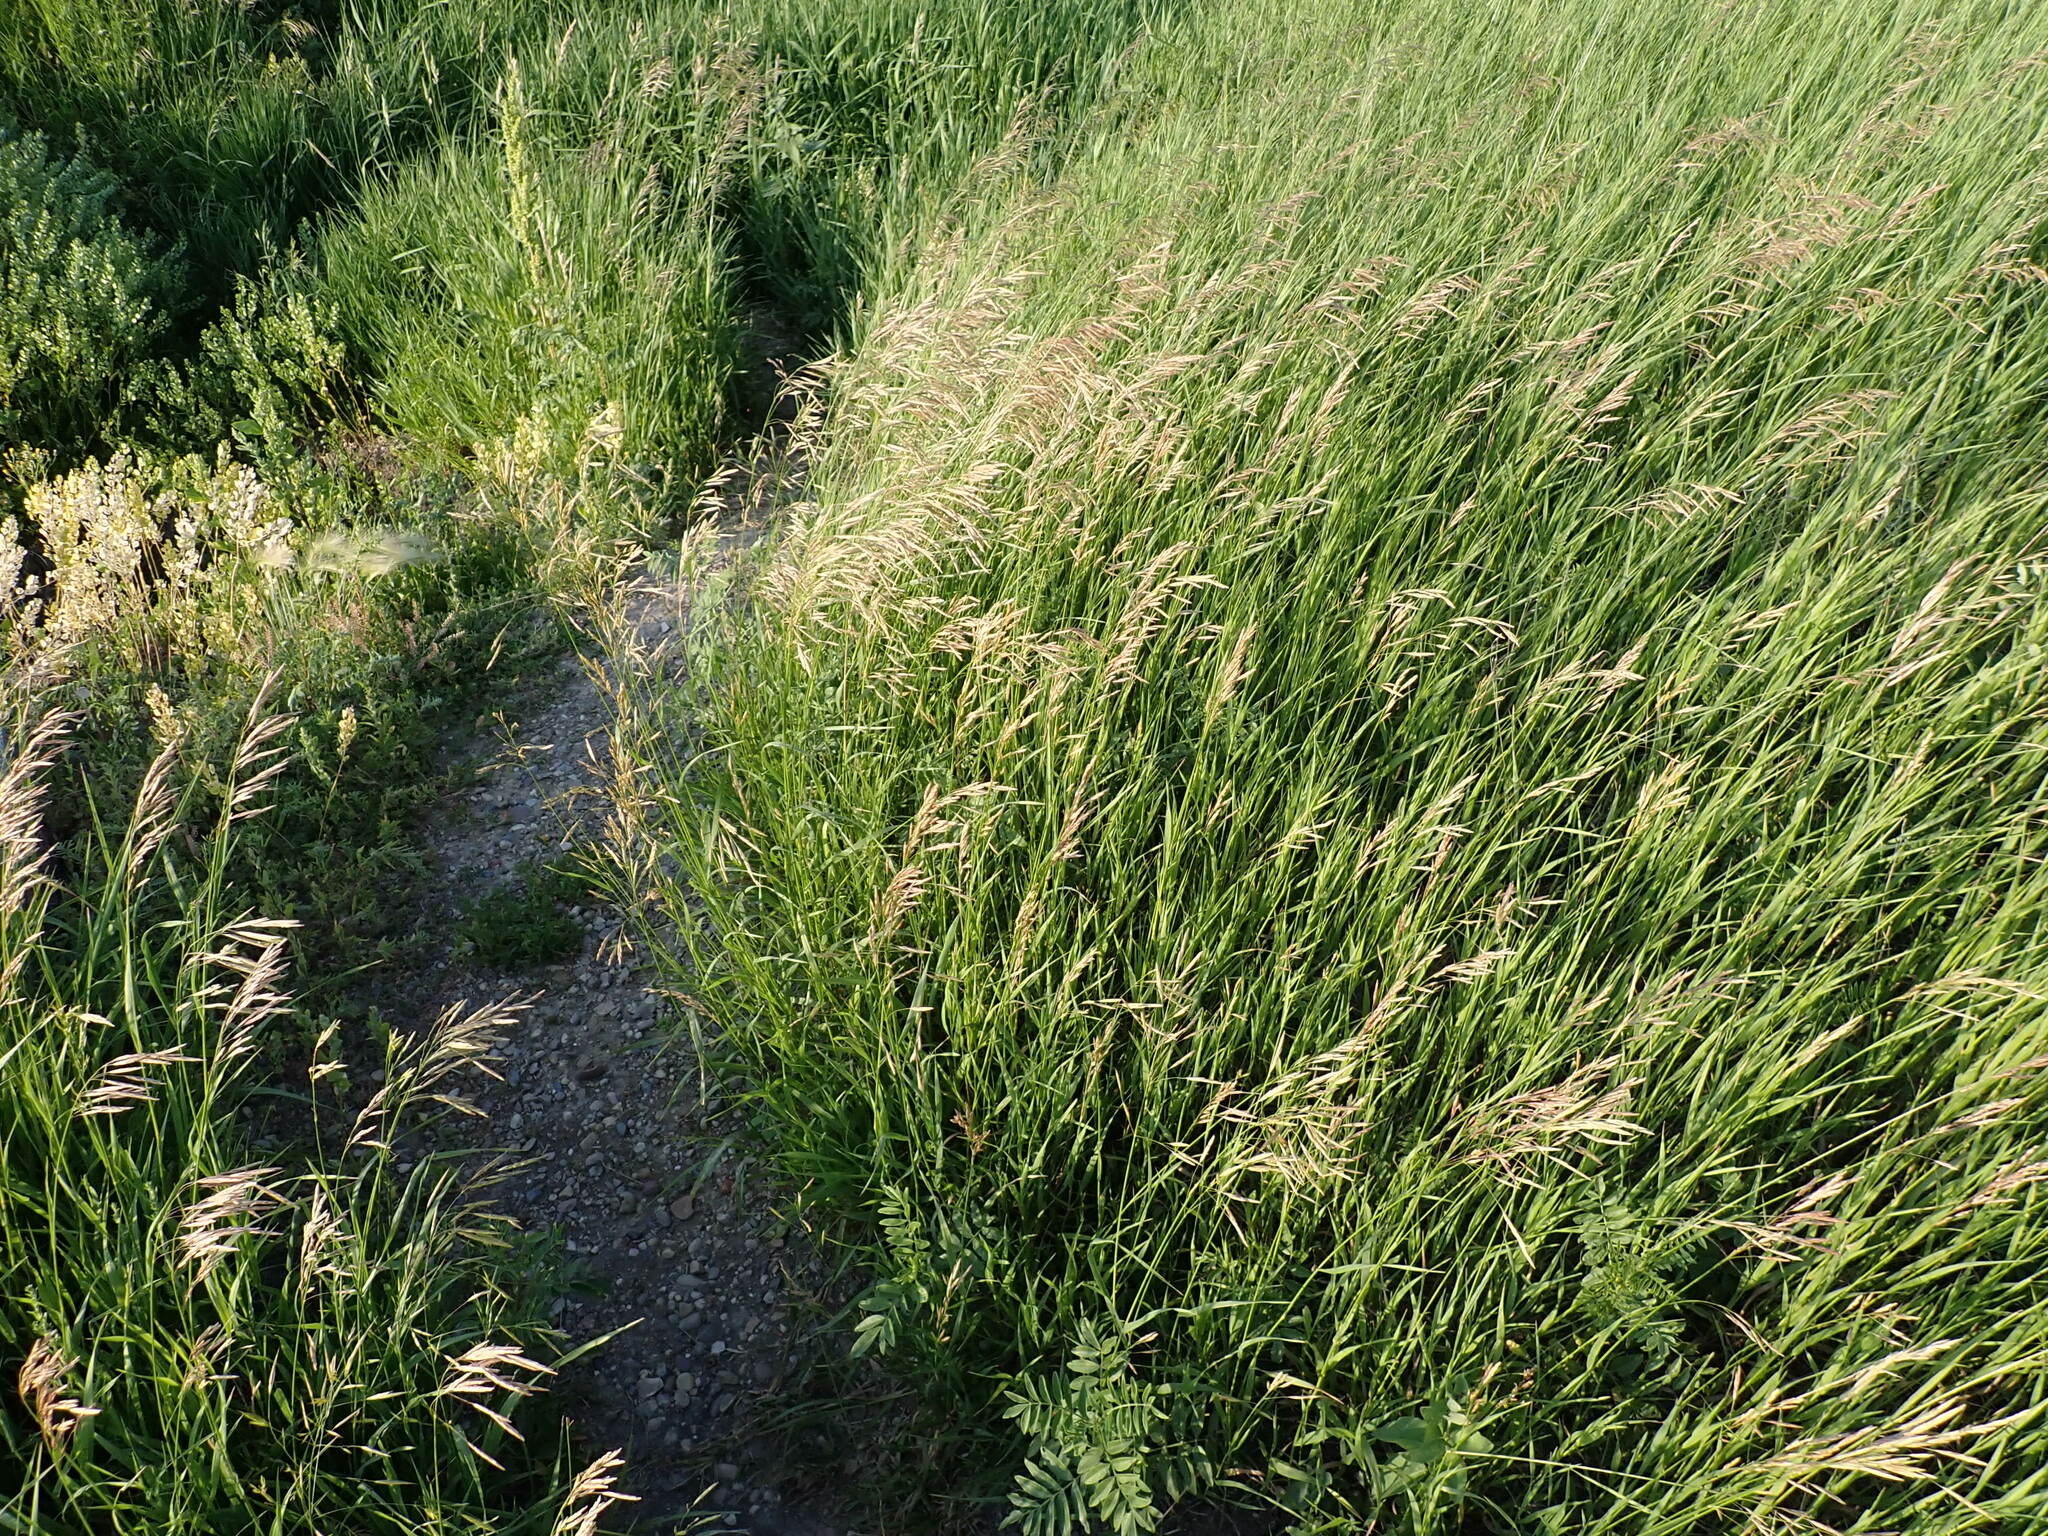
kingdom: Plantae
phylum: Tracheophyta
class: Liliopsida
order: Poales
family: Poaceae
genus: Bromus
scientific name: Bromus inermis
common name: Smooth brome
